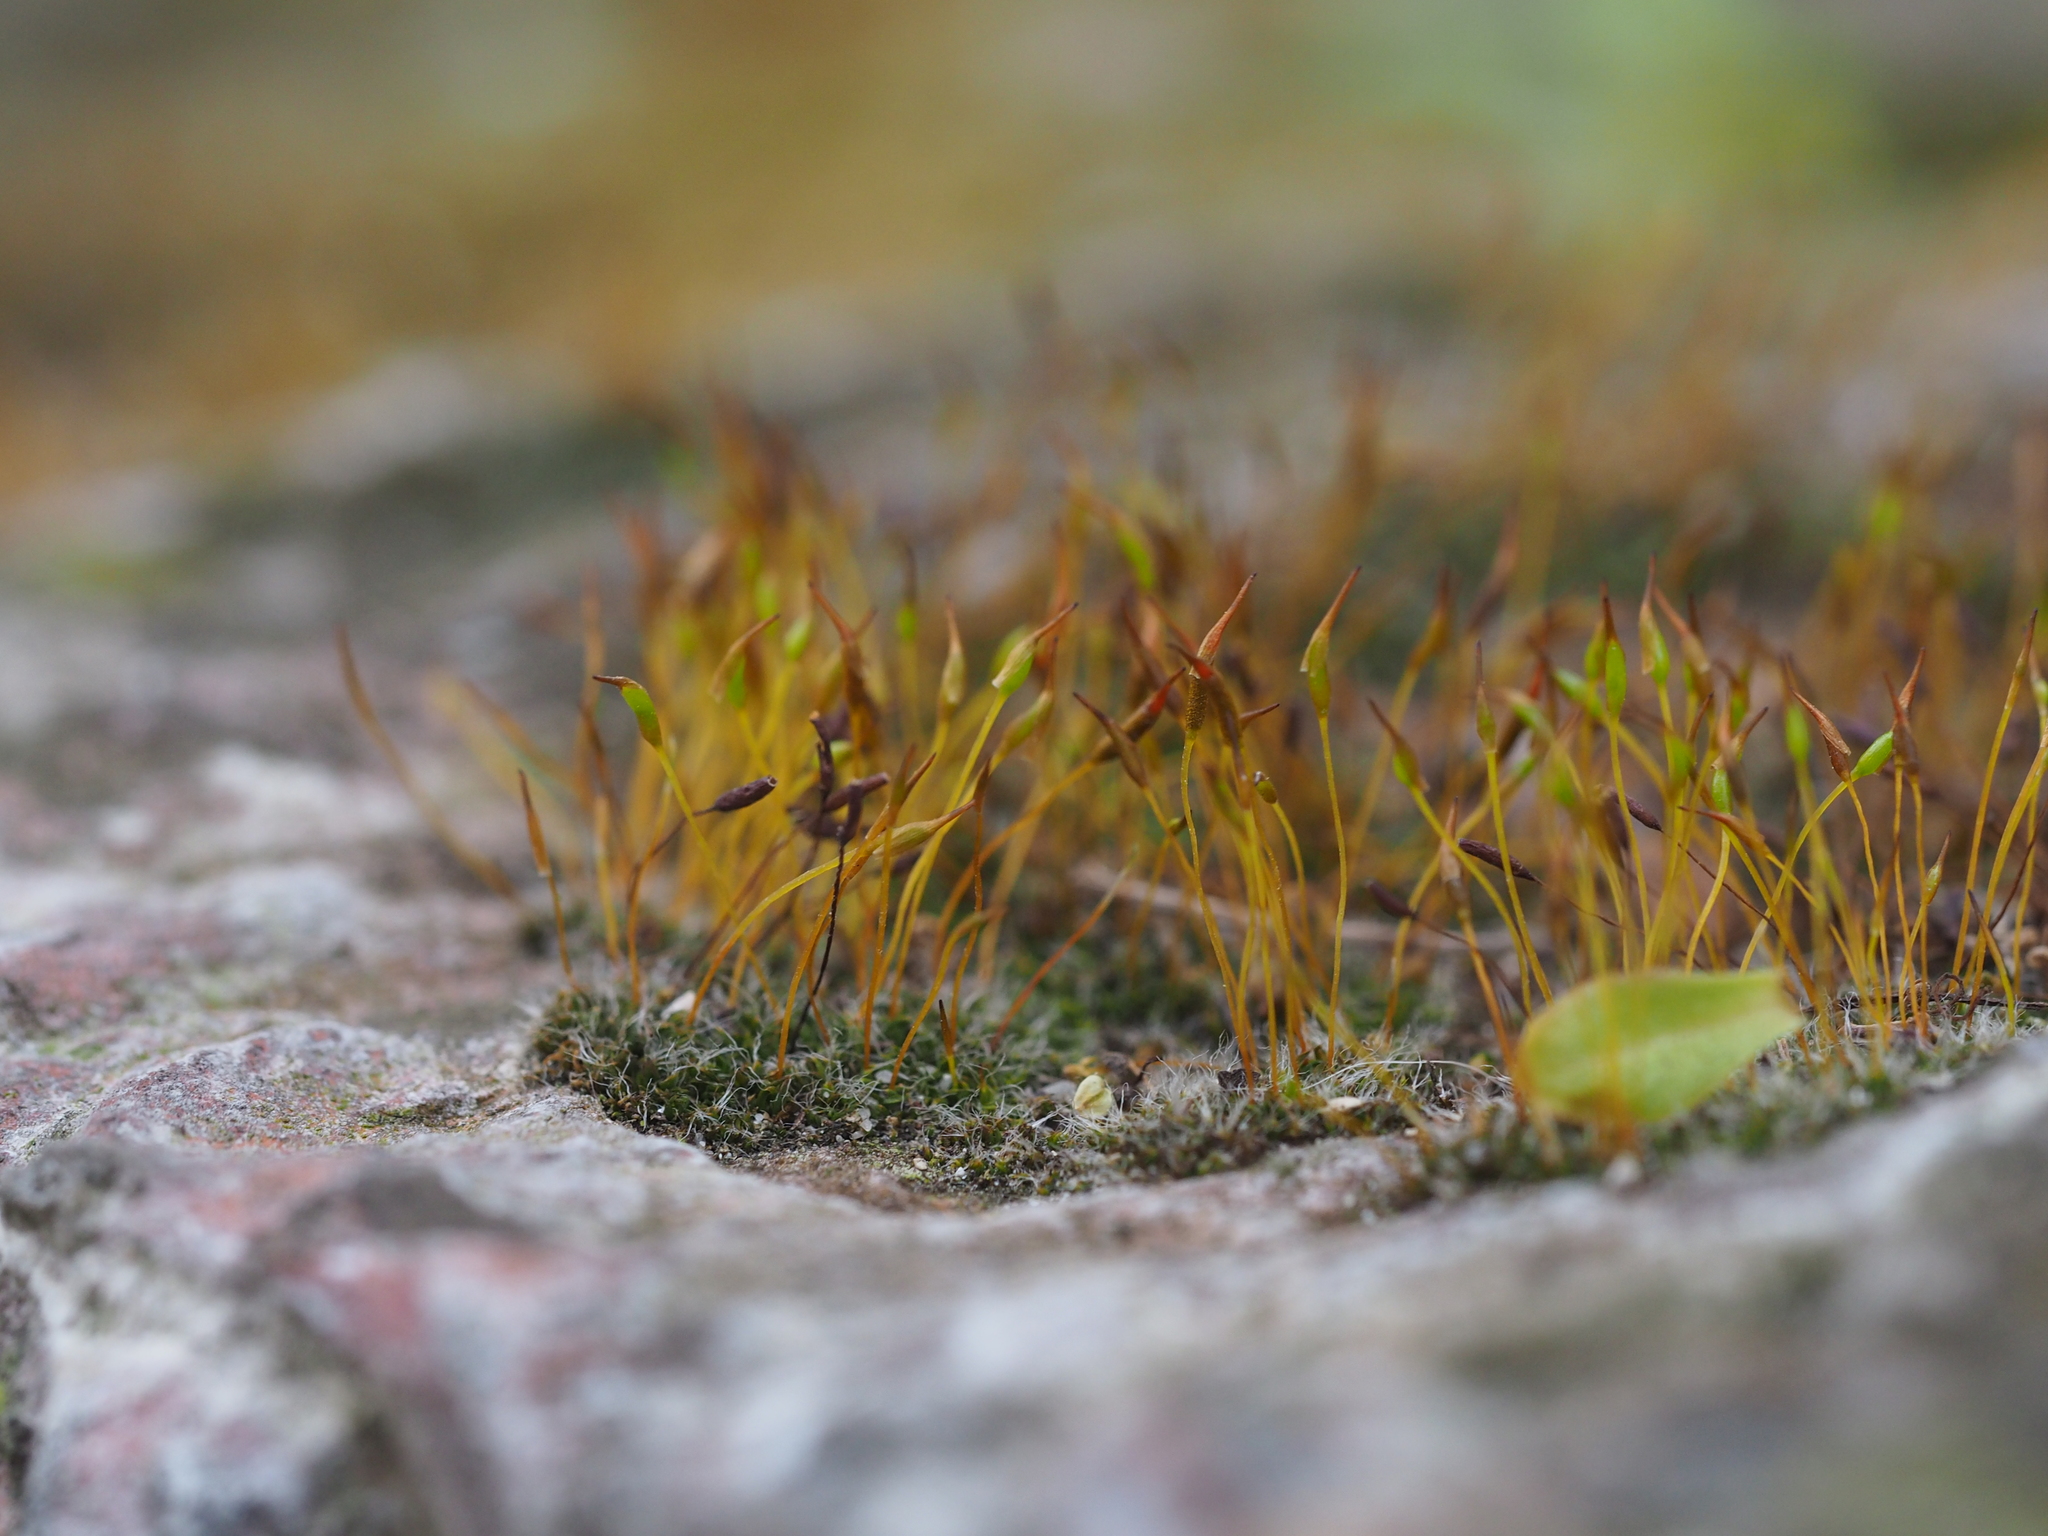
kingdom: Plantae
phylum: Bryophyta
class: Bryopsida
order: Pottiales
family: Pottiaceae
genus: Tortula
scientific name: Tortula muralis
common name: Wall screw-moss
